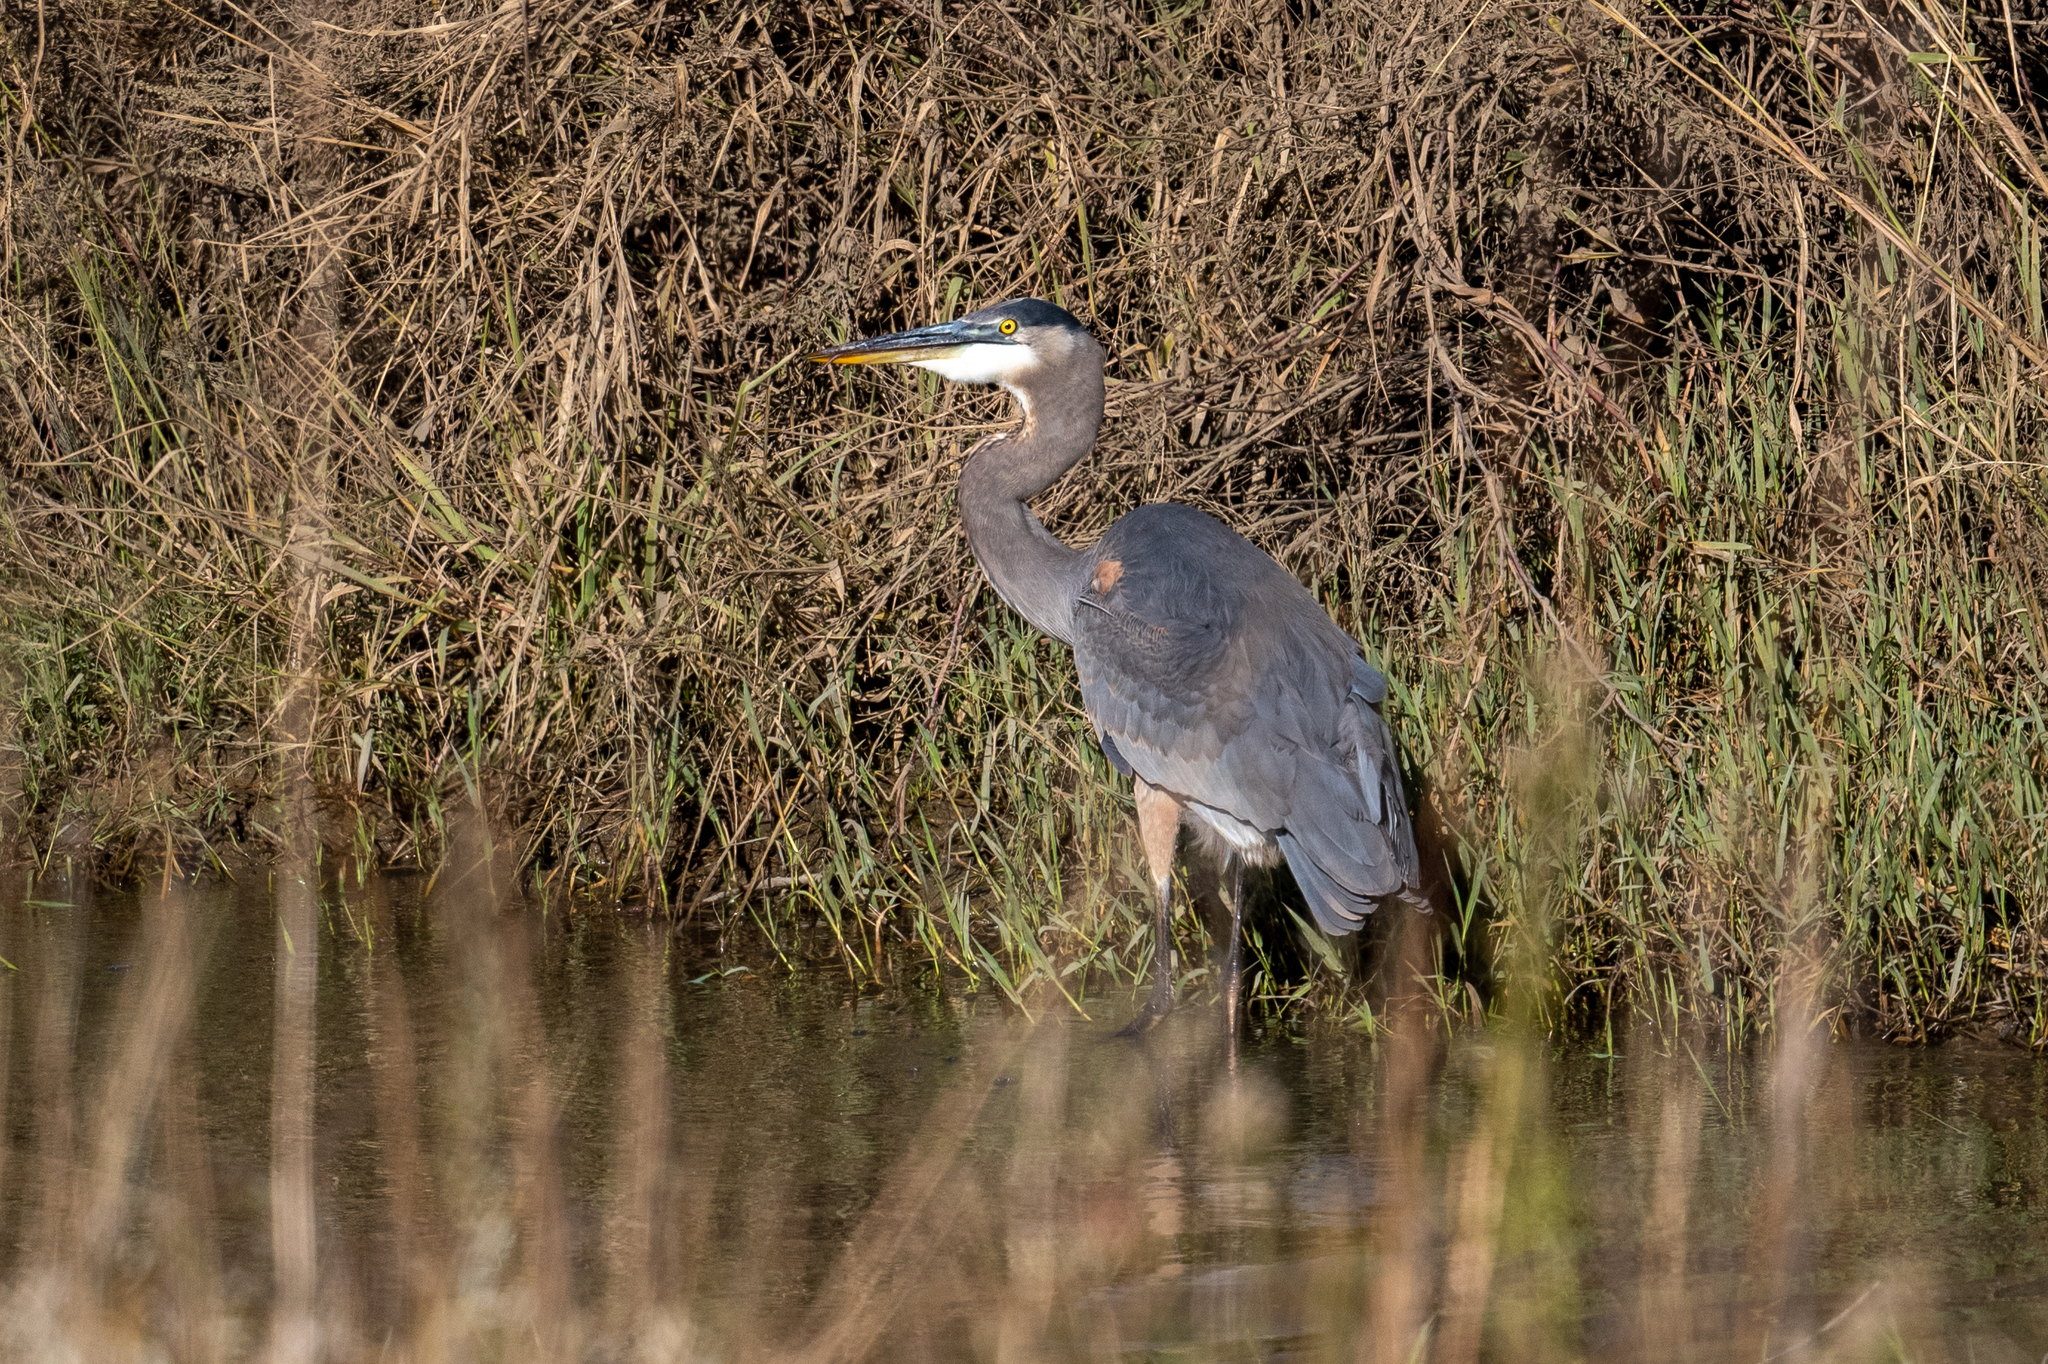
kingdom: Animalia
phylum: Chordata
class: Aves
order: Pelecaniformes
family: Ardeidae
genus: Ardea
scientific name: Ardea herodias
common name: Great blue heron
